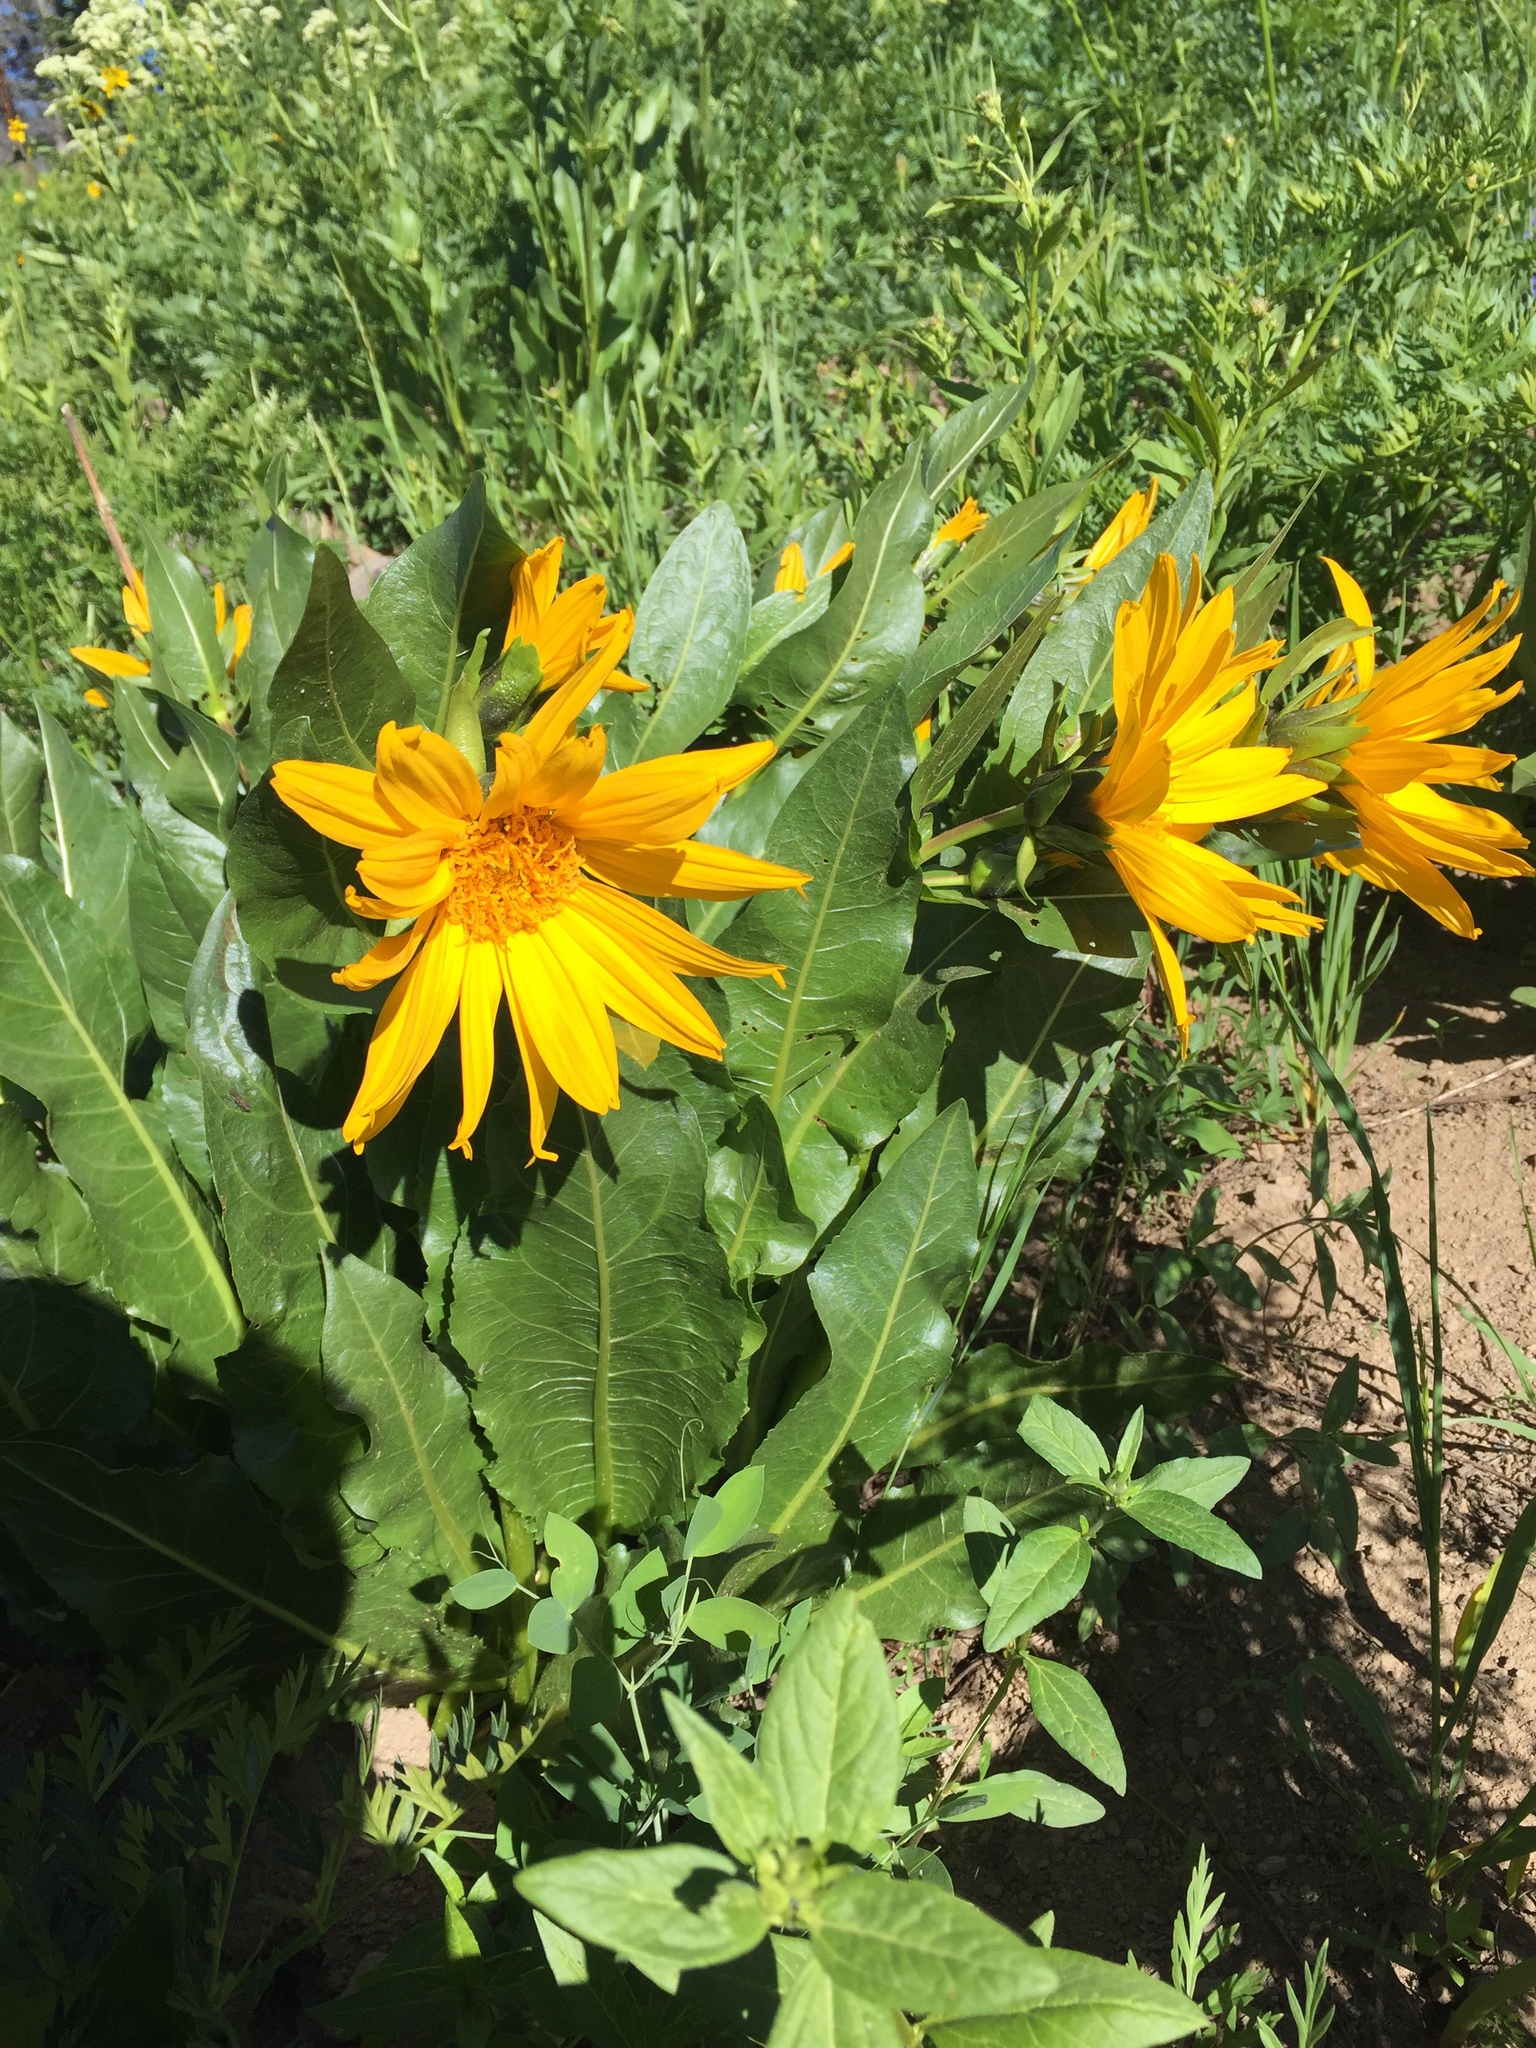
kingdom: Plantae
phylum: Tracheophyta
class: Magnoliopsida
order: Asterales
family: Asteraceae
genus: Wyethia
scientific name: Wyethia amplexicaulis
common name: Northern mule's-ears
